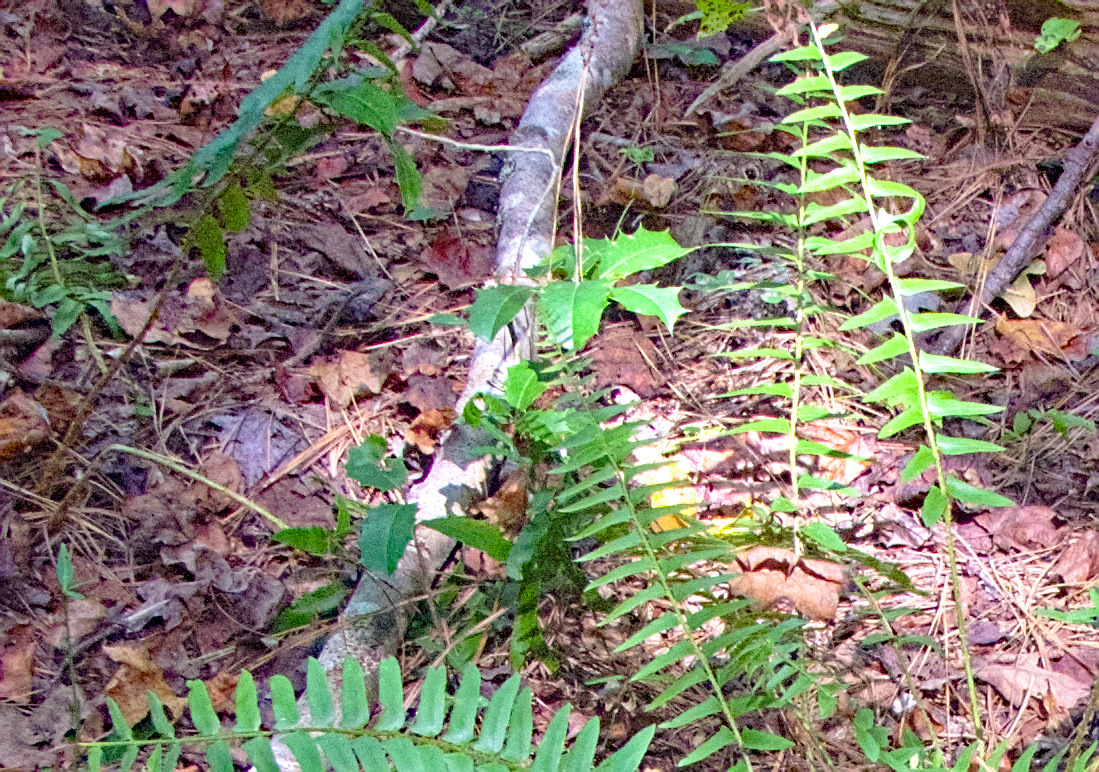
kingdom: Plantae
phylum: Tracheophyta
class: Magnoliopsida
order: Aquifoliales
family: Aquifoliaceae
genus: Ilex
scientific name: Ilex opaca
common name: American holly
